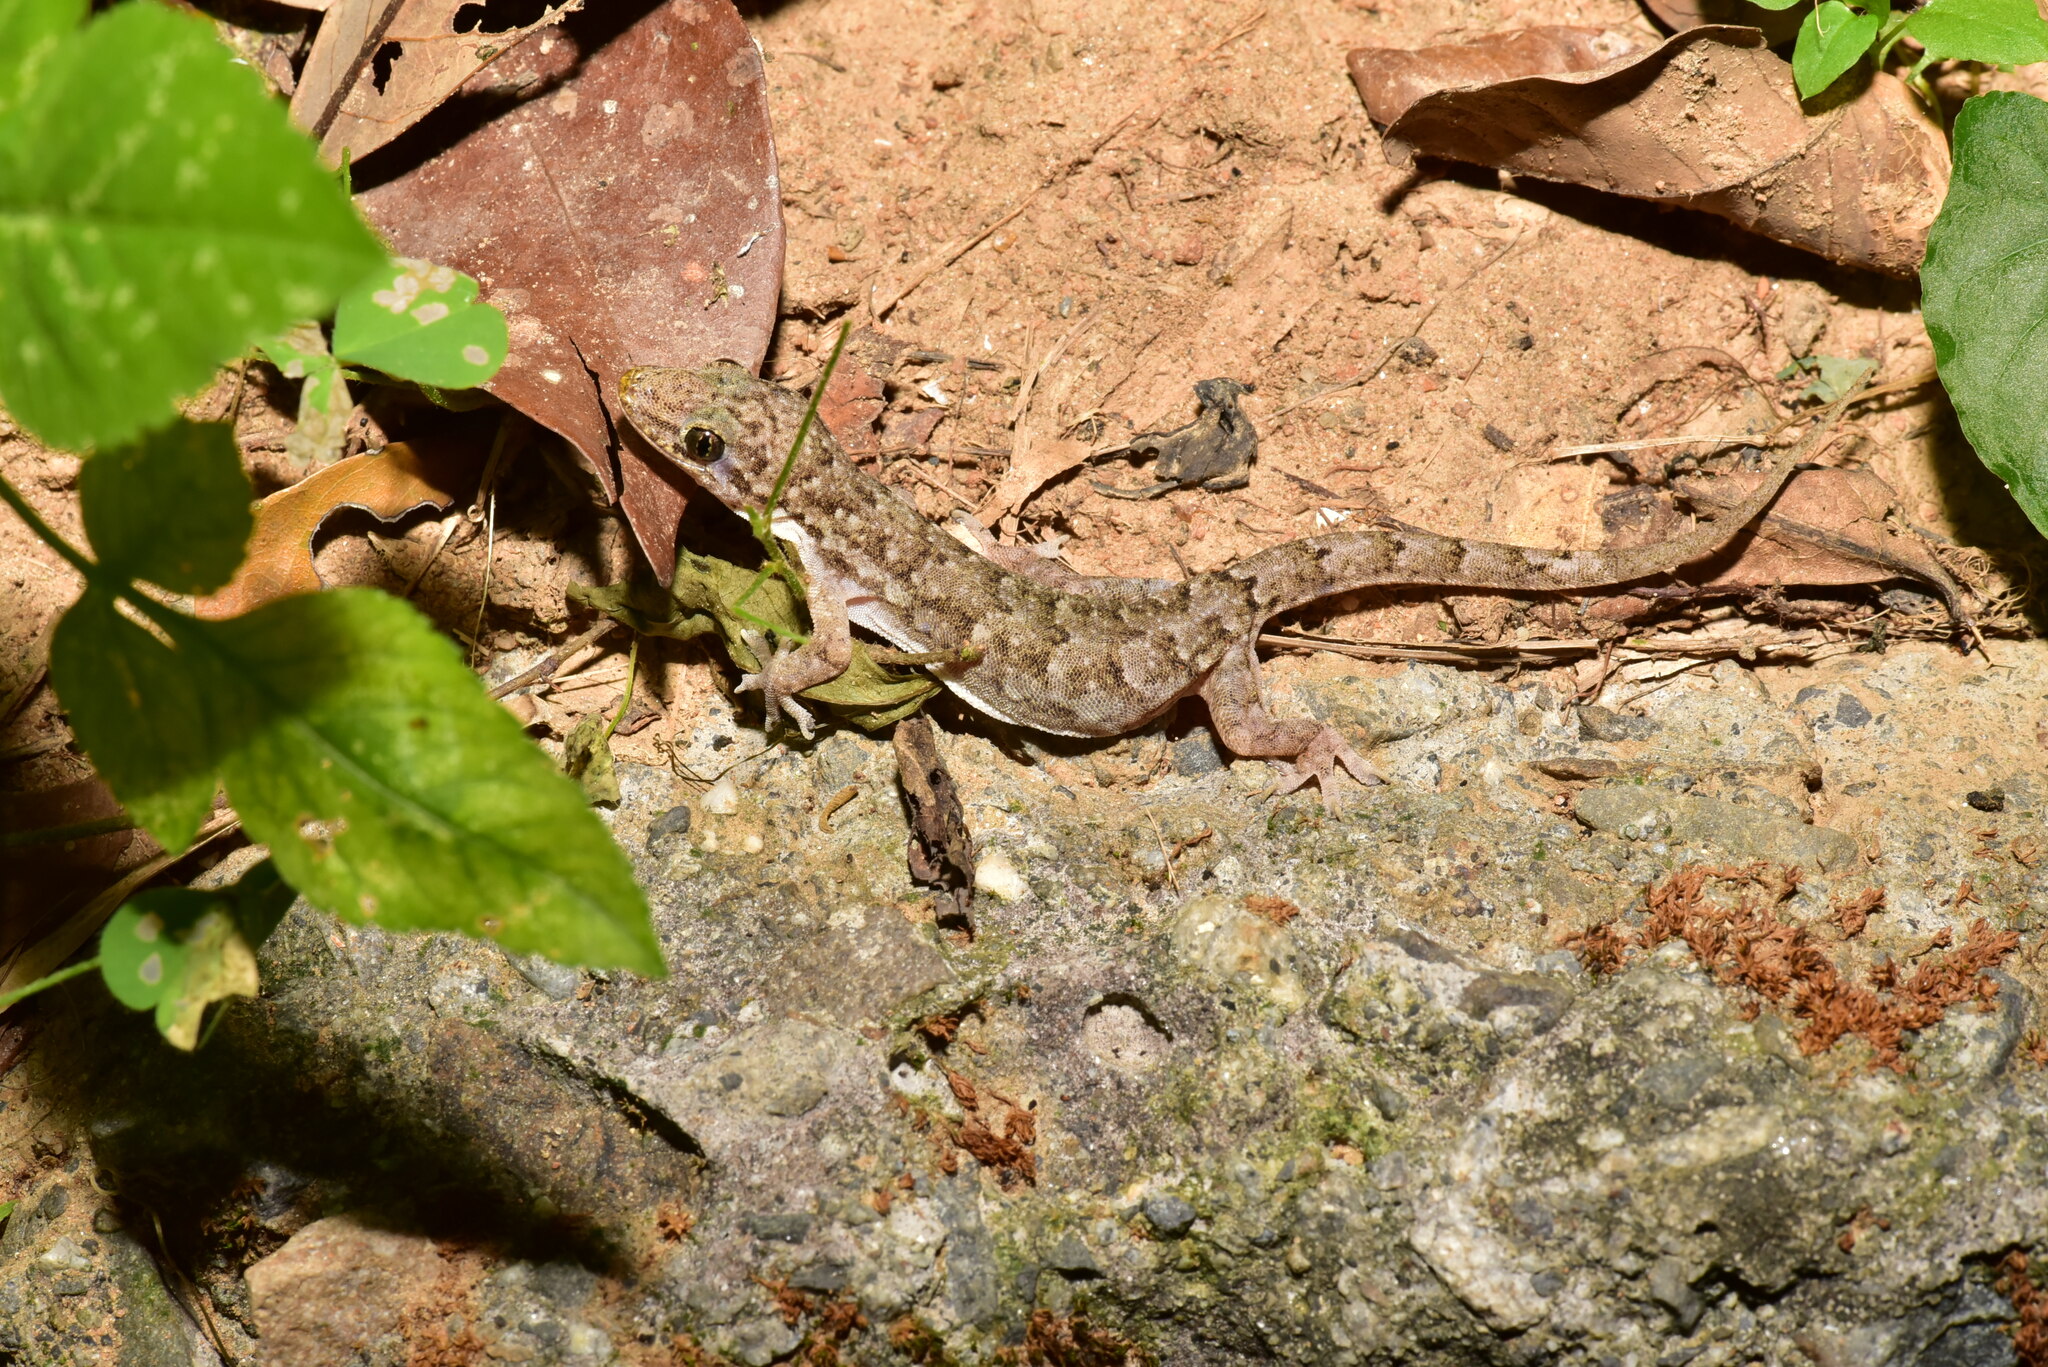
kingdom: Animalia
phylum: Chordata
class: Squamata
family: Gekkonidae
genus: Hemidactylus
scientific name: Hemidactylus bowringii
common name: Oriental leaf-toed gecko
